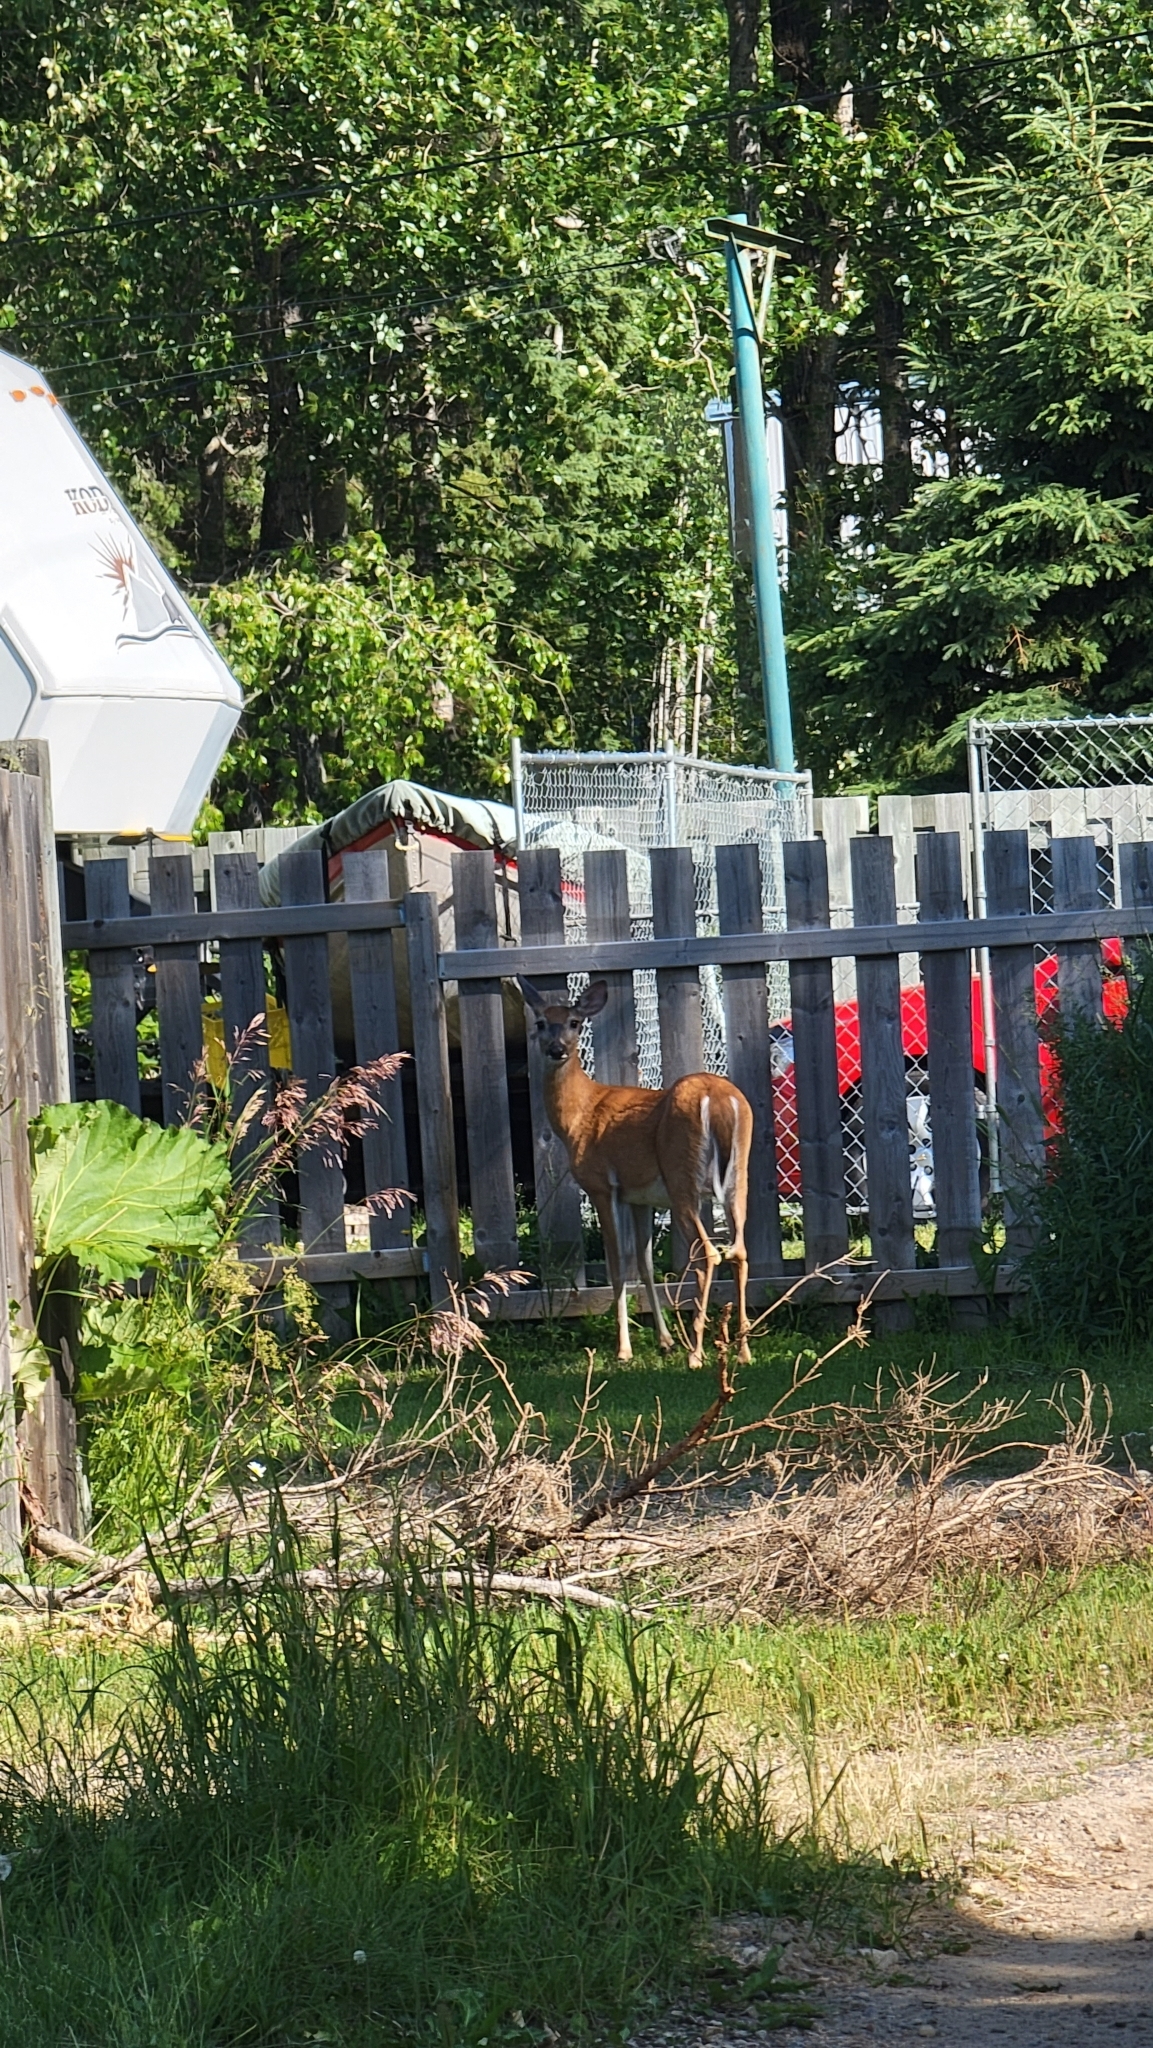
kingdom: Animalia
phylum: Chordata
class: Mammalia
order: Artiodactyla
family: Cervidae
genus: Odocoileus
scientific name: Odocoileus virginianus
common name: White-tailed deer
